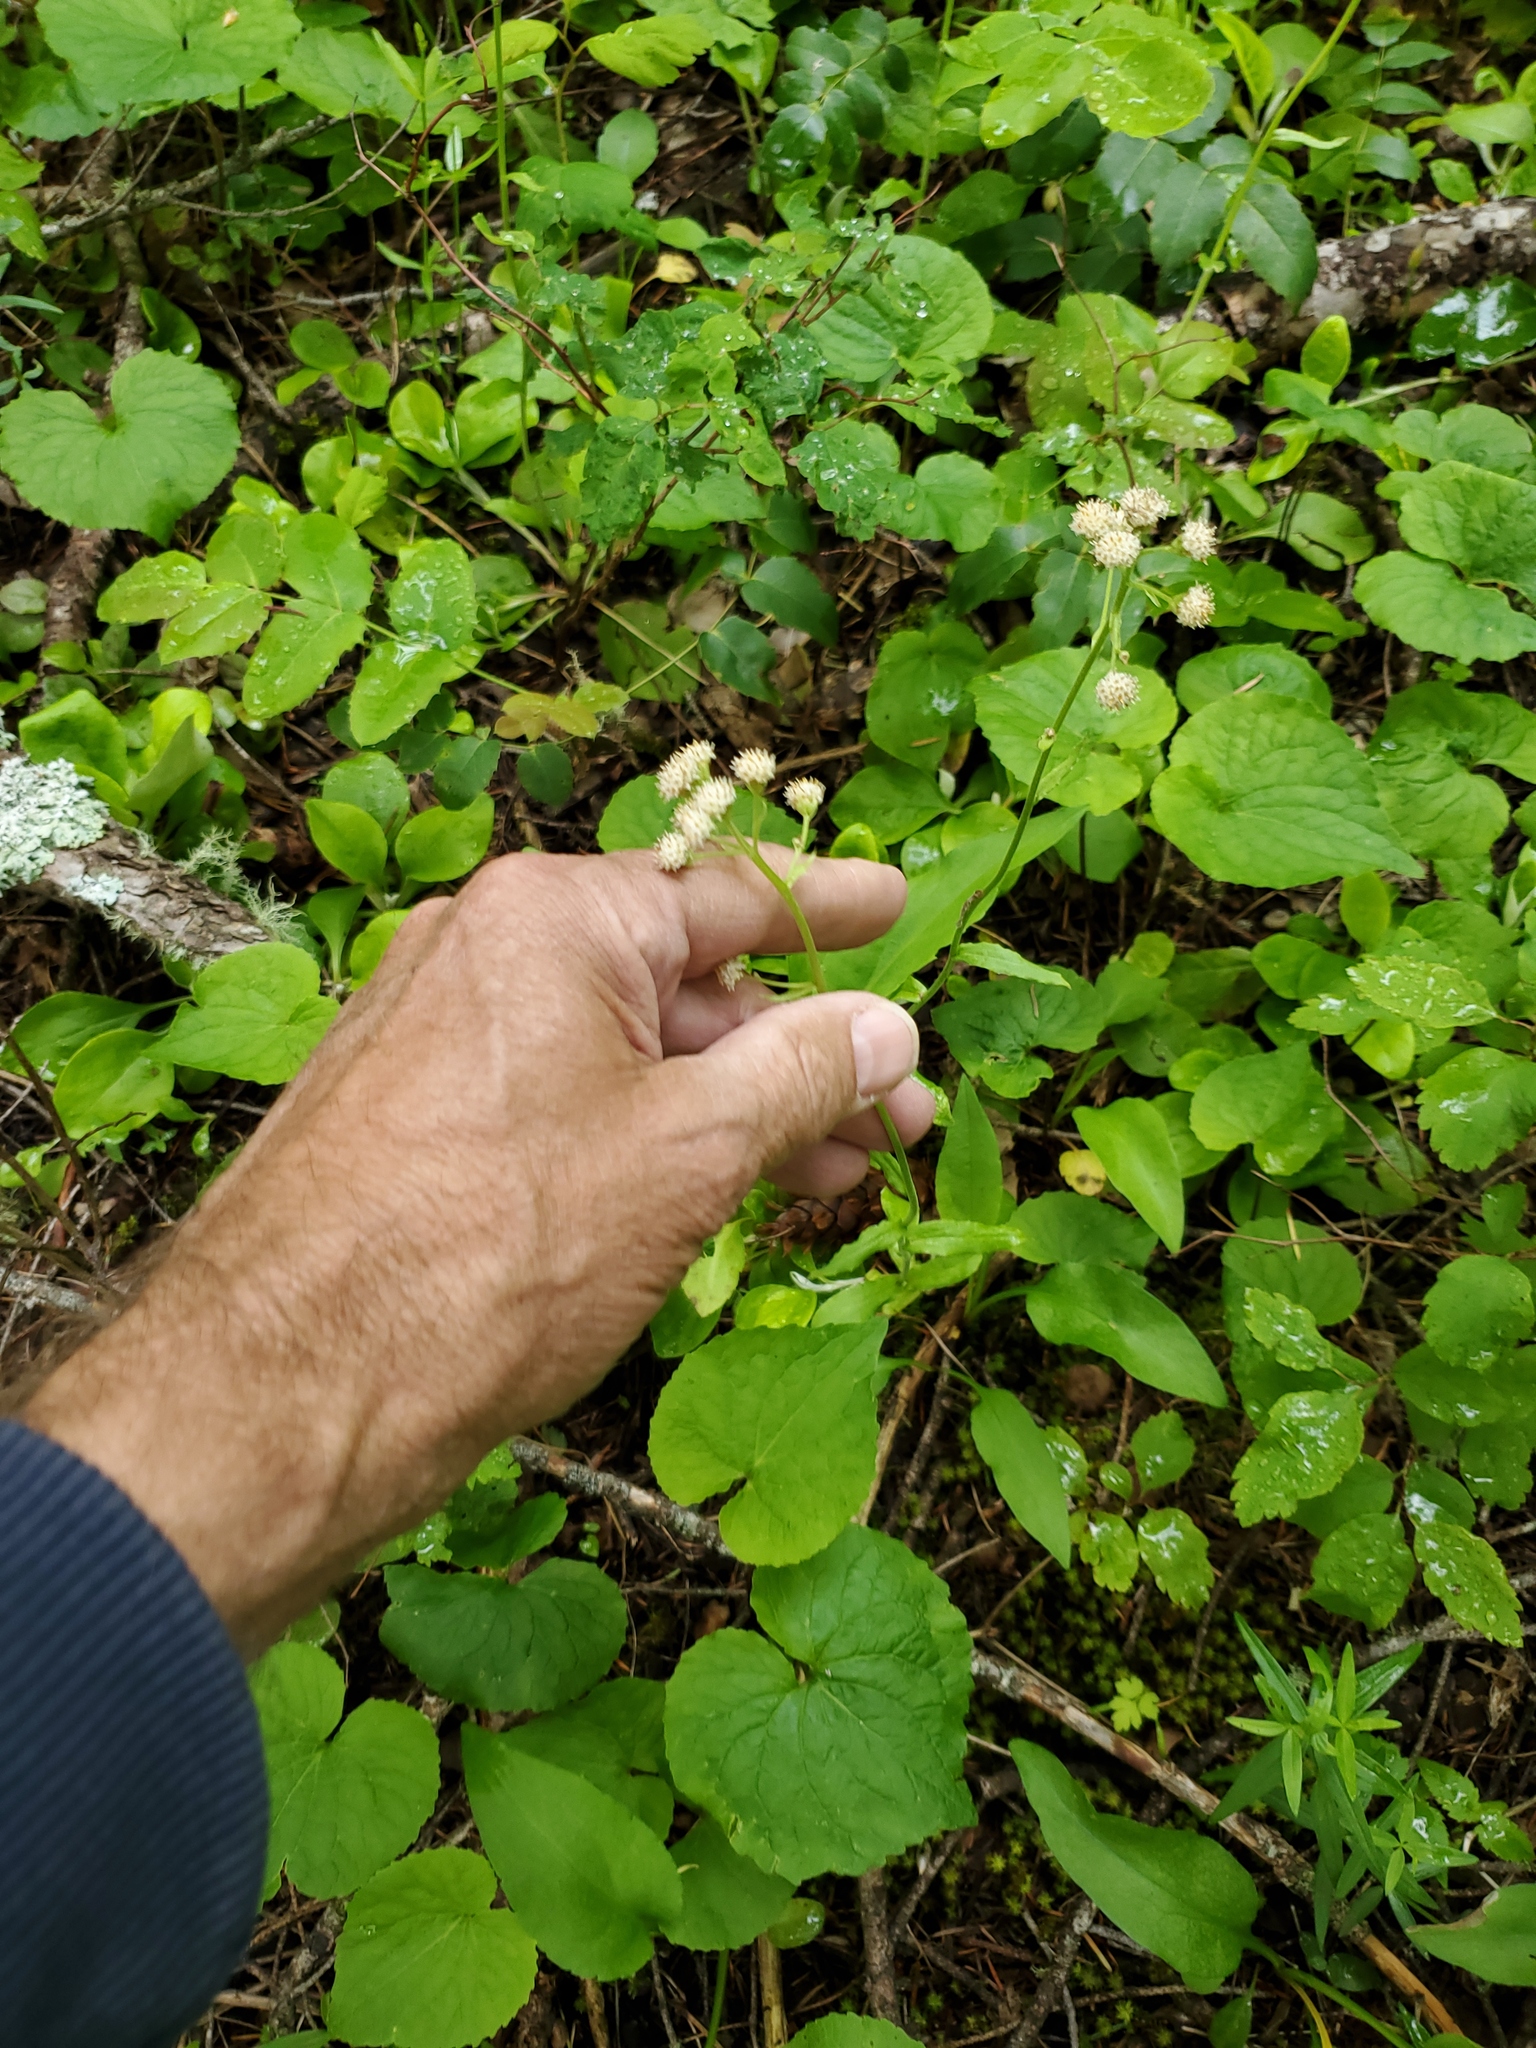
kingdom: Plantae
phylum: Tracheophyta
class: Magnoliopsida
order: Asterales
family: Asteraceae
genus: Antennaria
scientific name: Antennaria racemosa
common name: Racemose pussytoes
